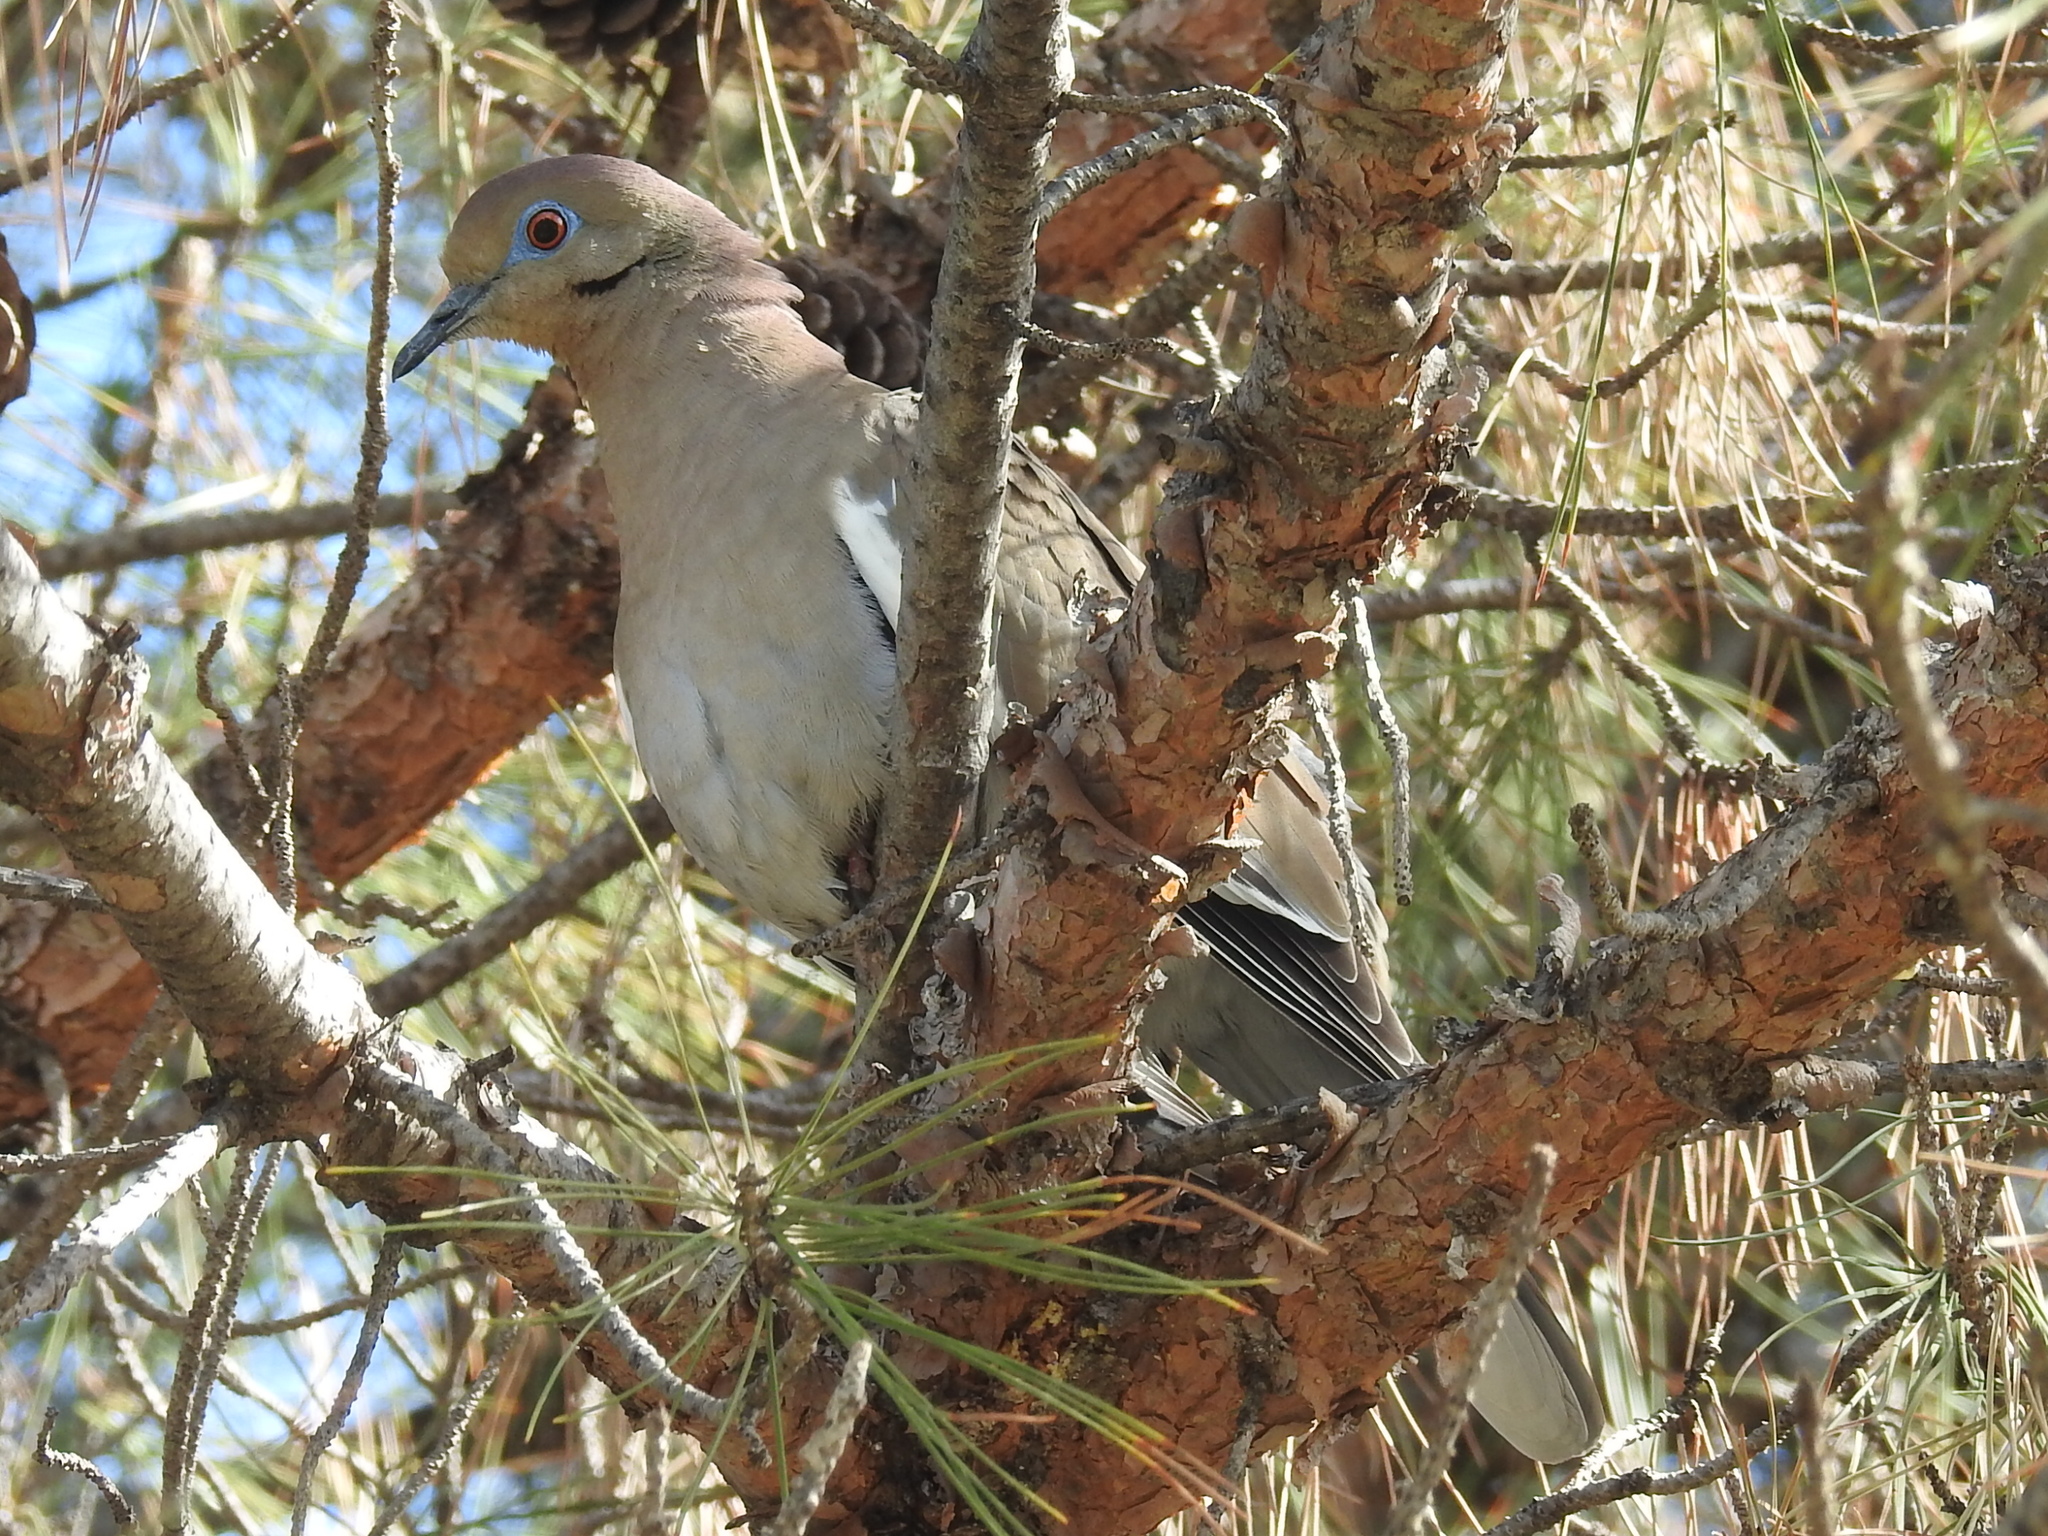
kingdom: Animalia
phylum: Chordata
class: Aves
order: Columbiformes
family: Columbidae
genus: Zenaida
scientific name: Zenaida asiatica
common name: White-winged dove
